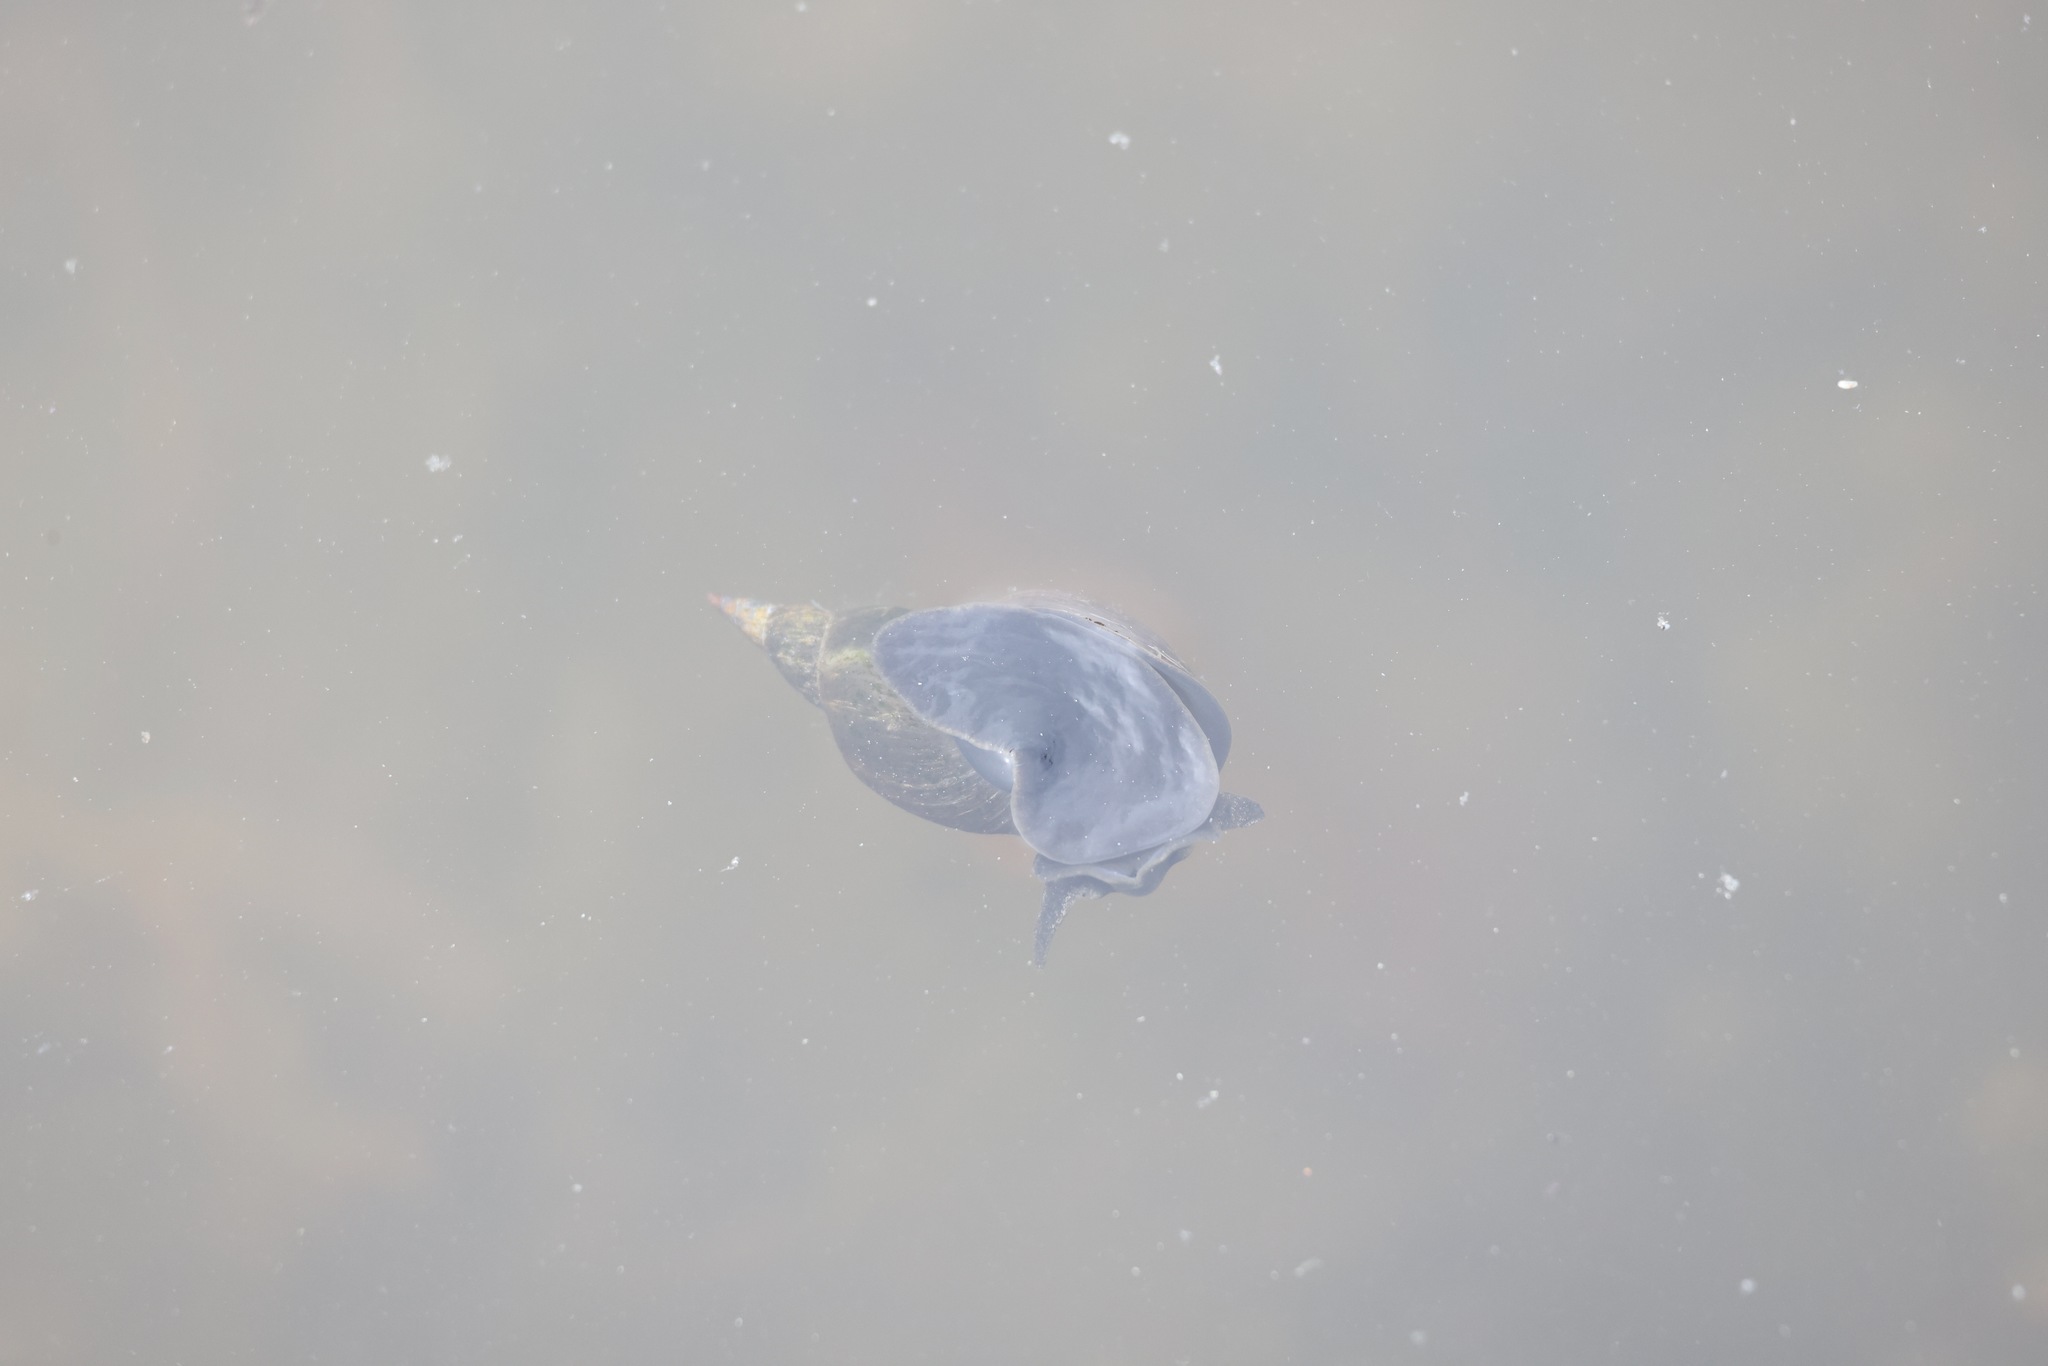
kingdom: Animalia
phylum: Mollusca
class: Gastropoda
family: Lymnaeidae
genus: Lymnaea
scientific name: Lymnaea stagnalis
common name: Great pond snail
